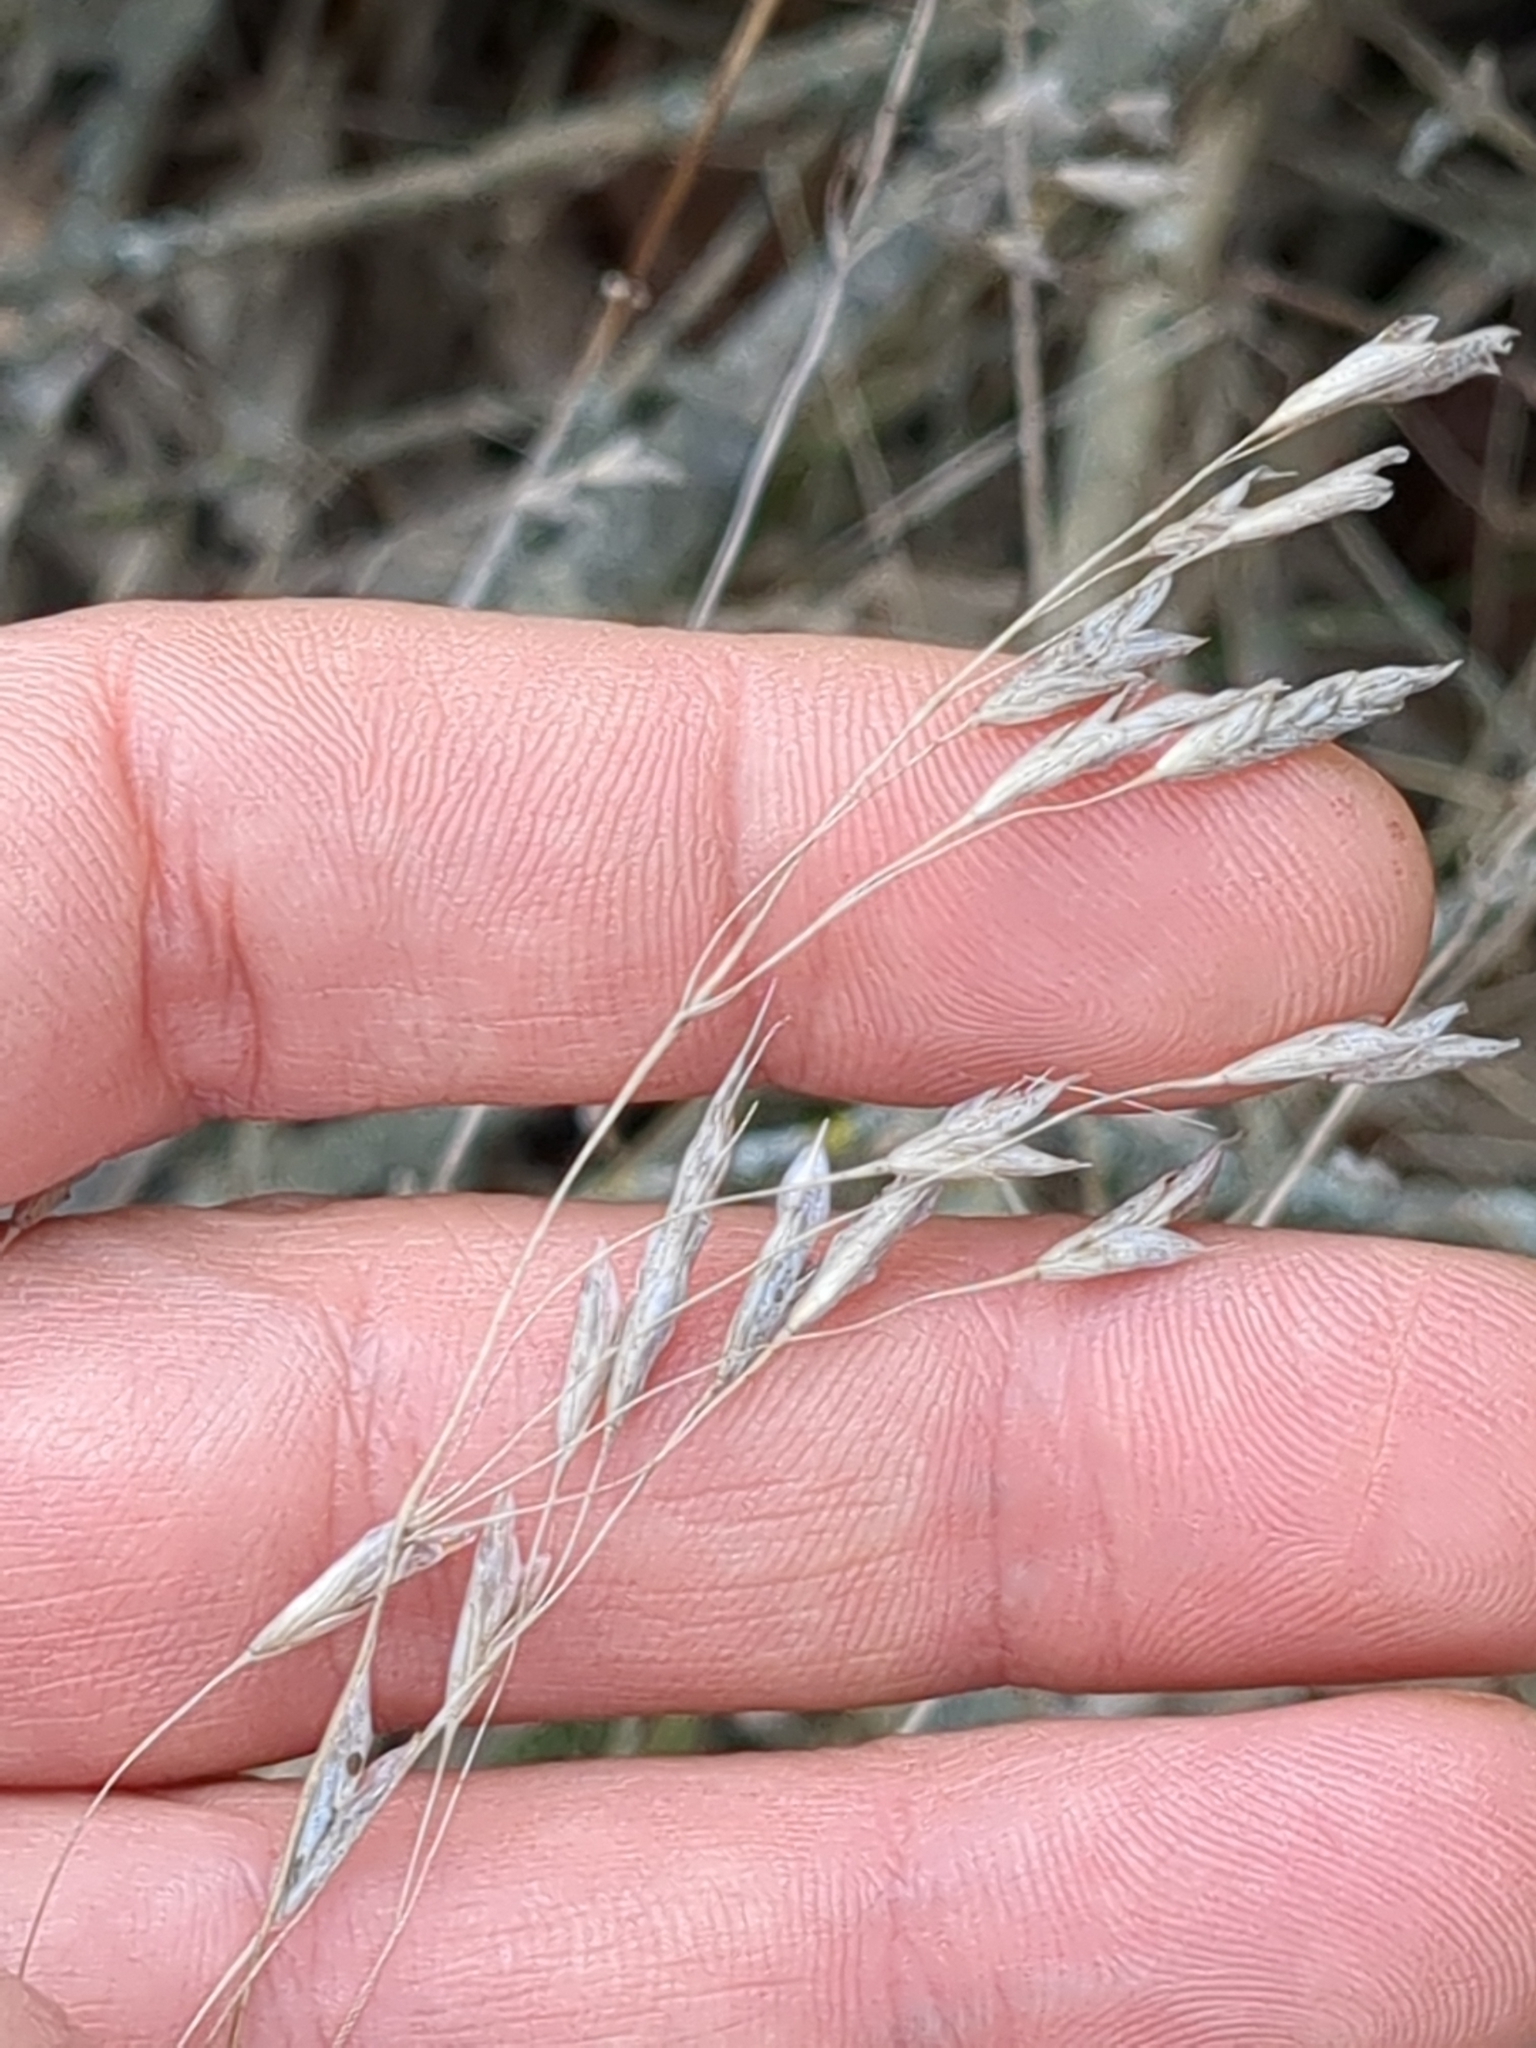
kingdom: Plantae
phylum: Tracheophyta
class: Liliopsida
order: Poales
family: Poaceae
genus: Bromus
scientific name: Bromus japonicus
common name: Japanese brome
